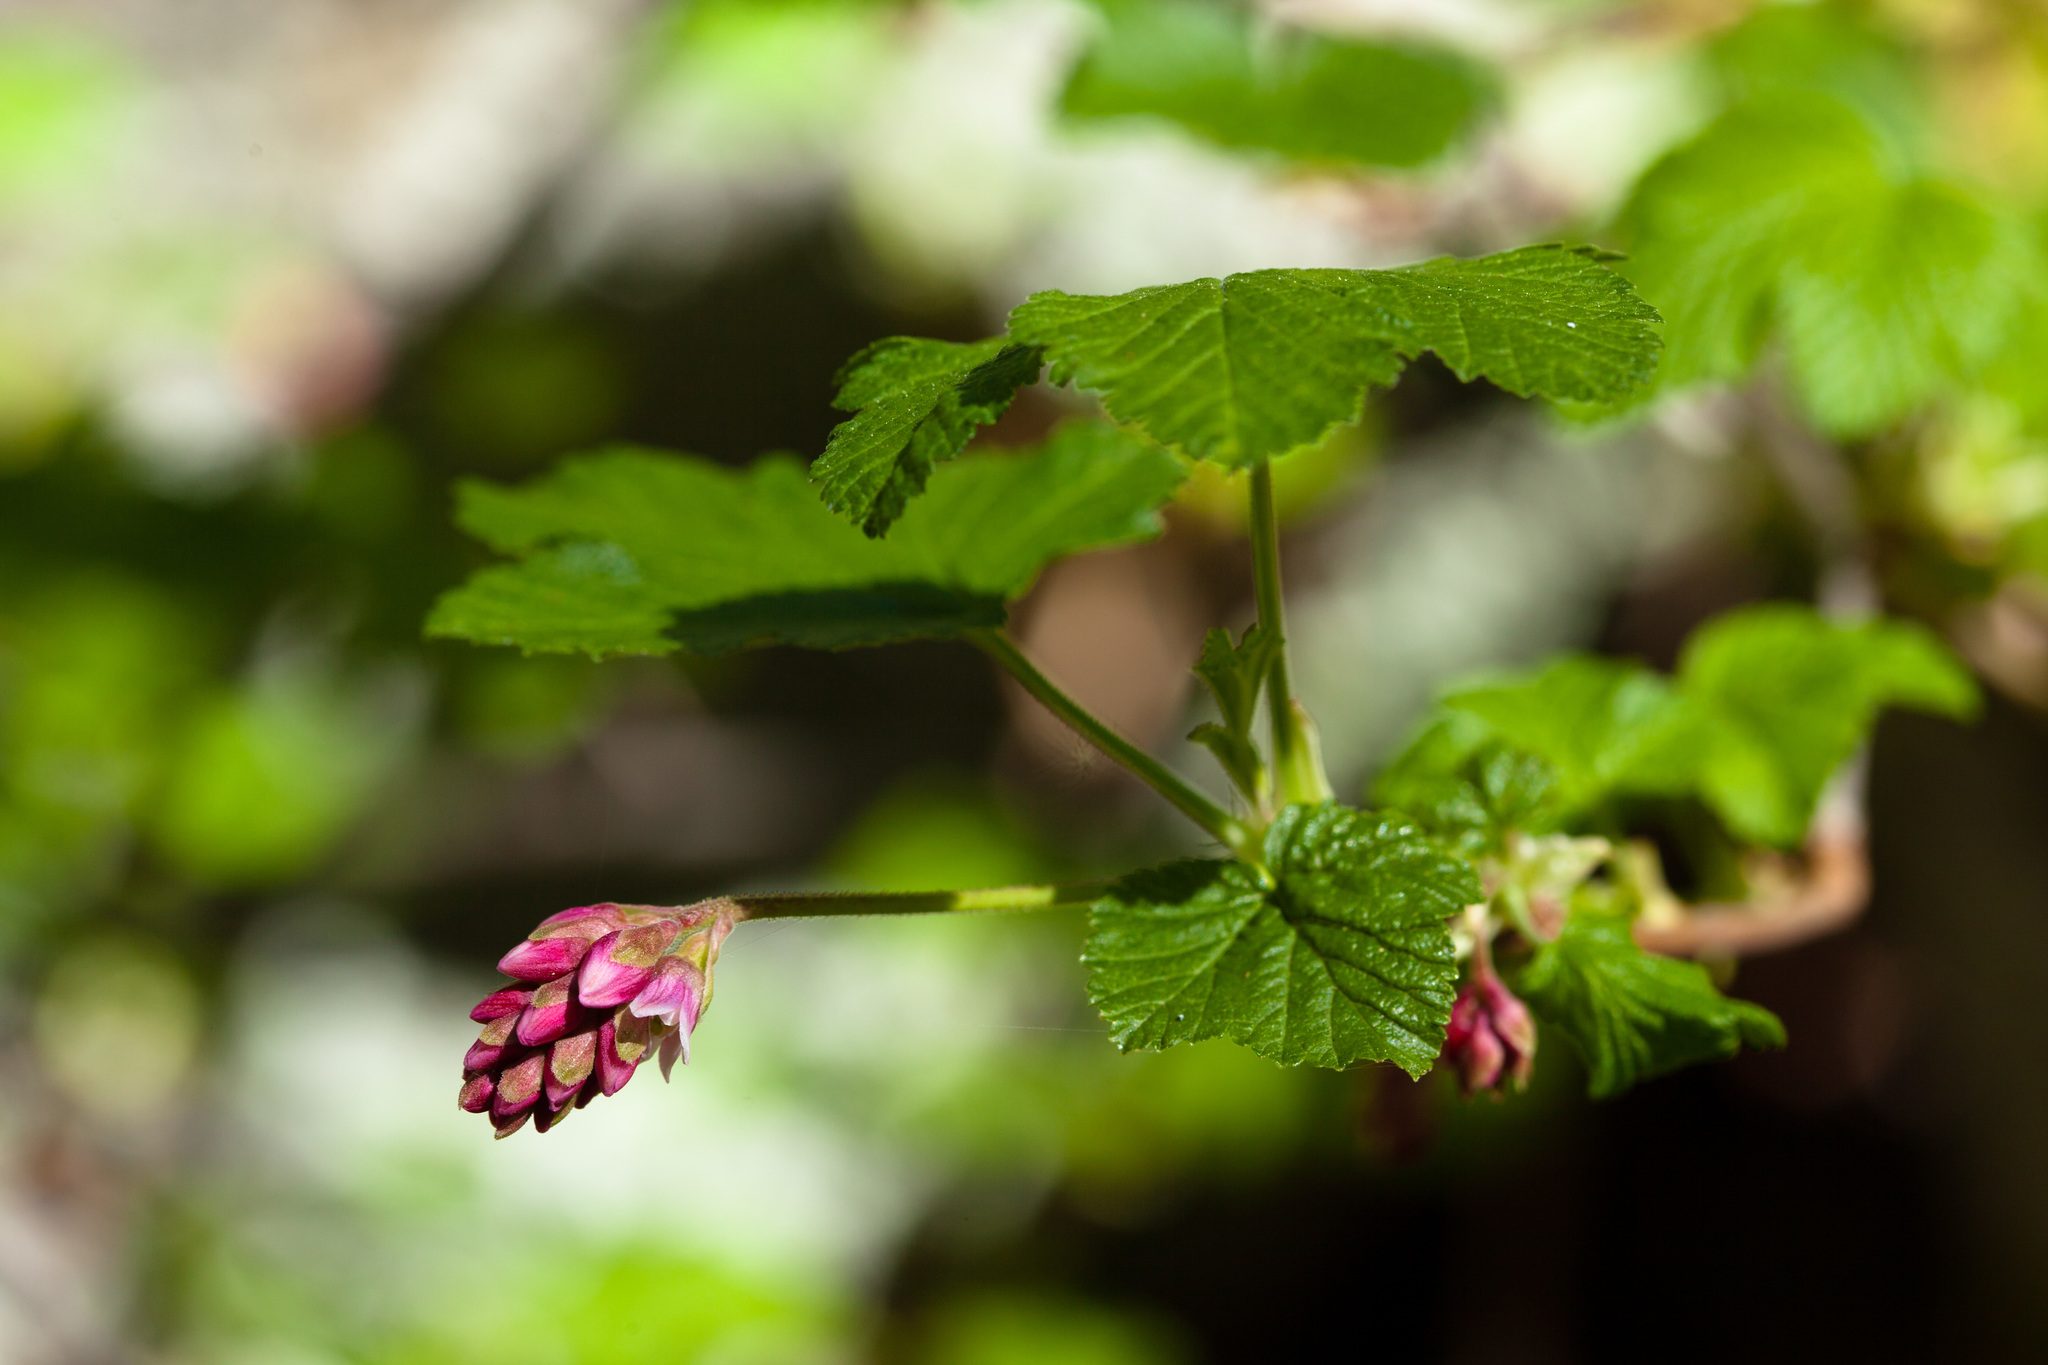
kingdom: Plantae
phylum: Tracheophyta
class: Magnoliopsida
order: Saxifragales
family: Grossulariaceae
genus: Ribes
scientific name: Ribes nevadense
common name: Mountain pink currant
